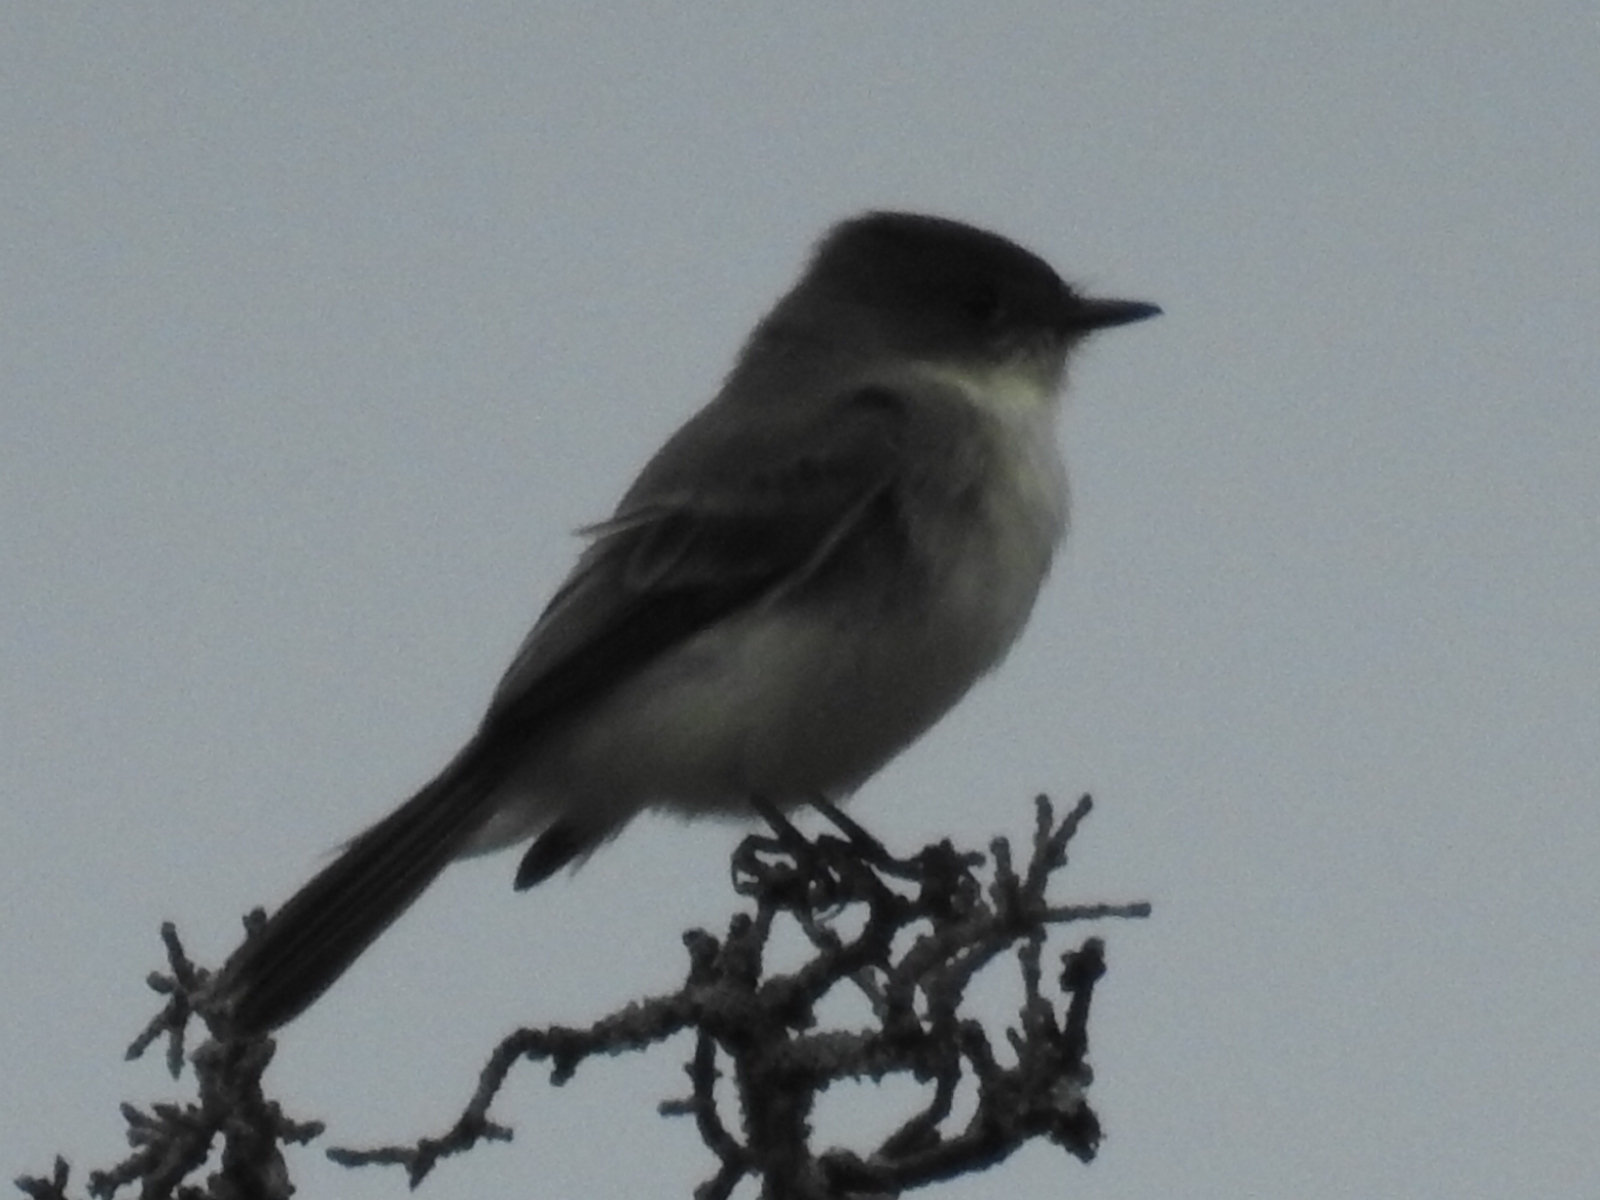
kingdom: Animalia
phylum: Chordata
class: Aves
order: Passeriformes
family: Tyrannidae
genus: Sayornis
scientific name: Sayornis phoebe
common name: Eastern phoebe
